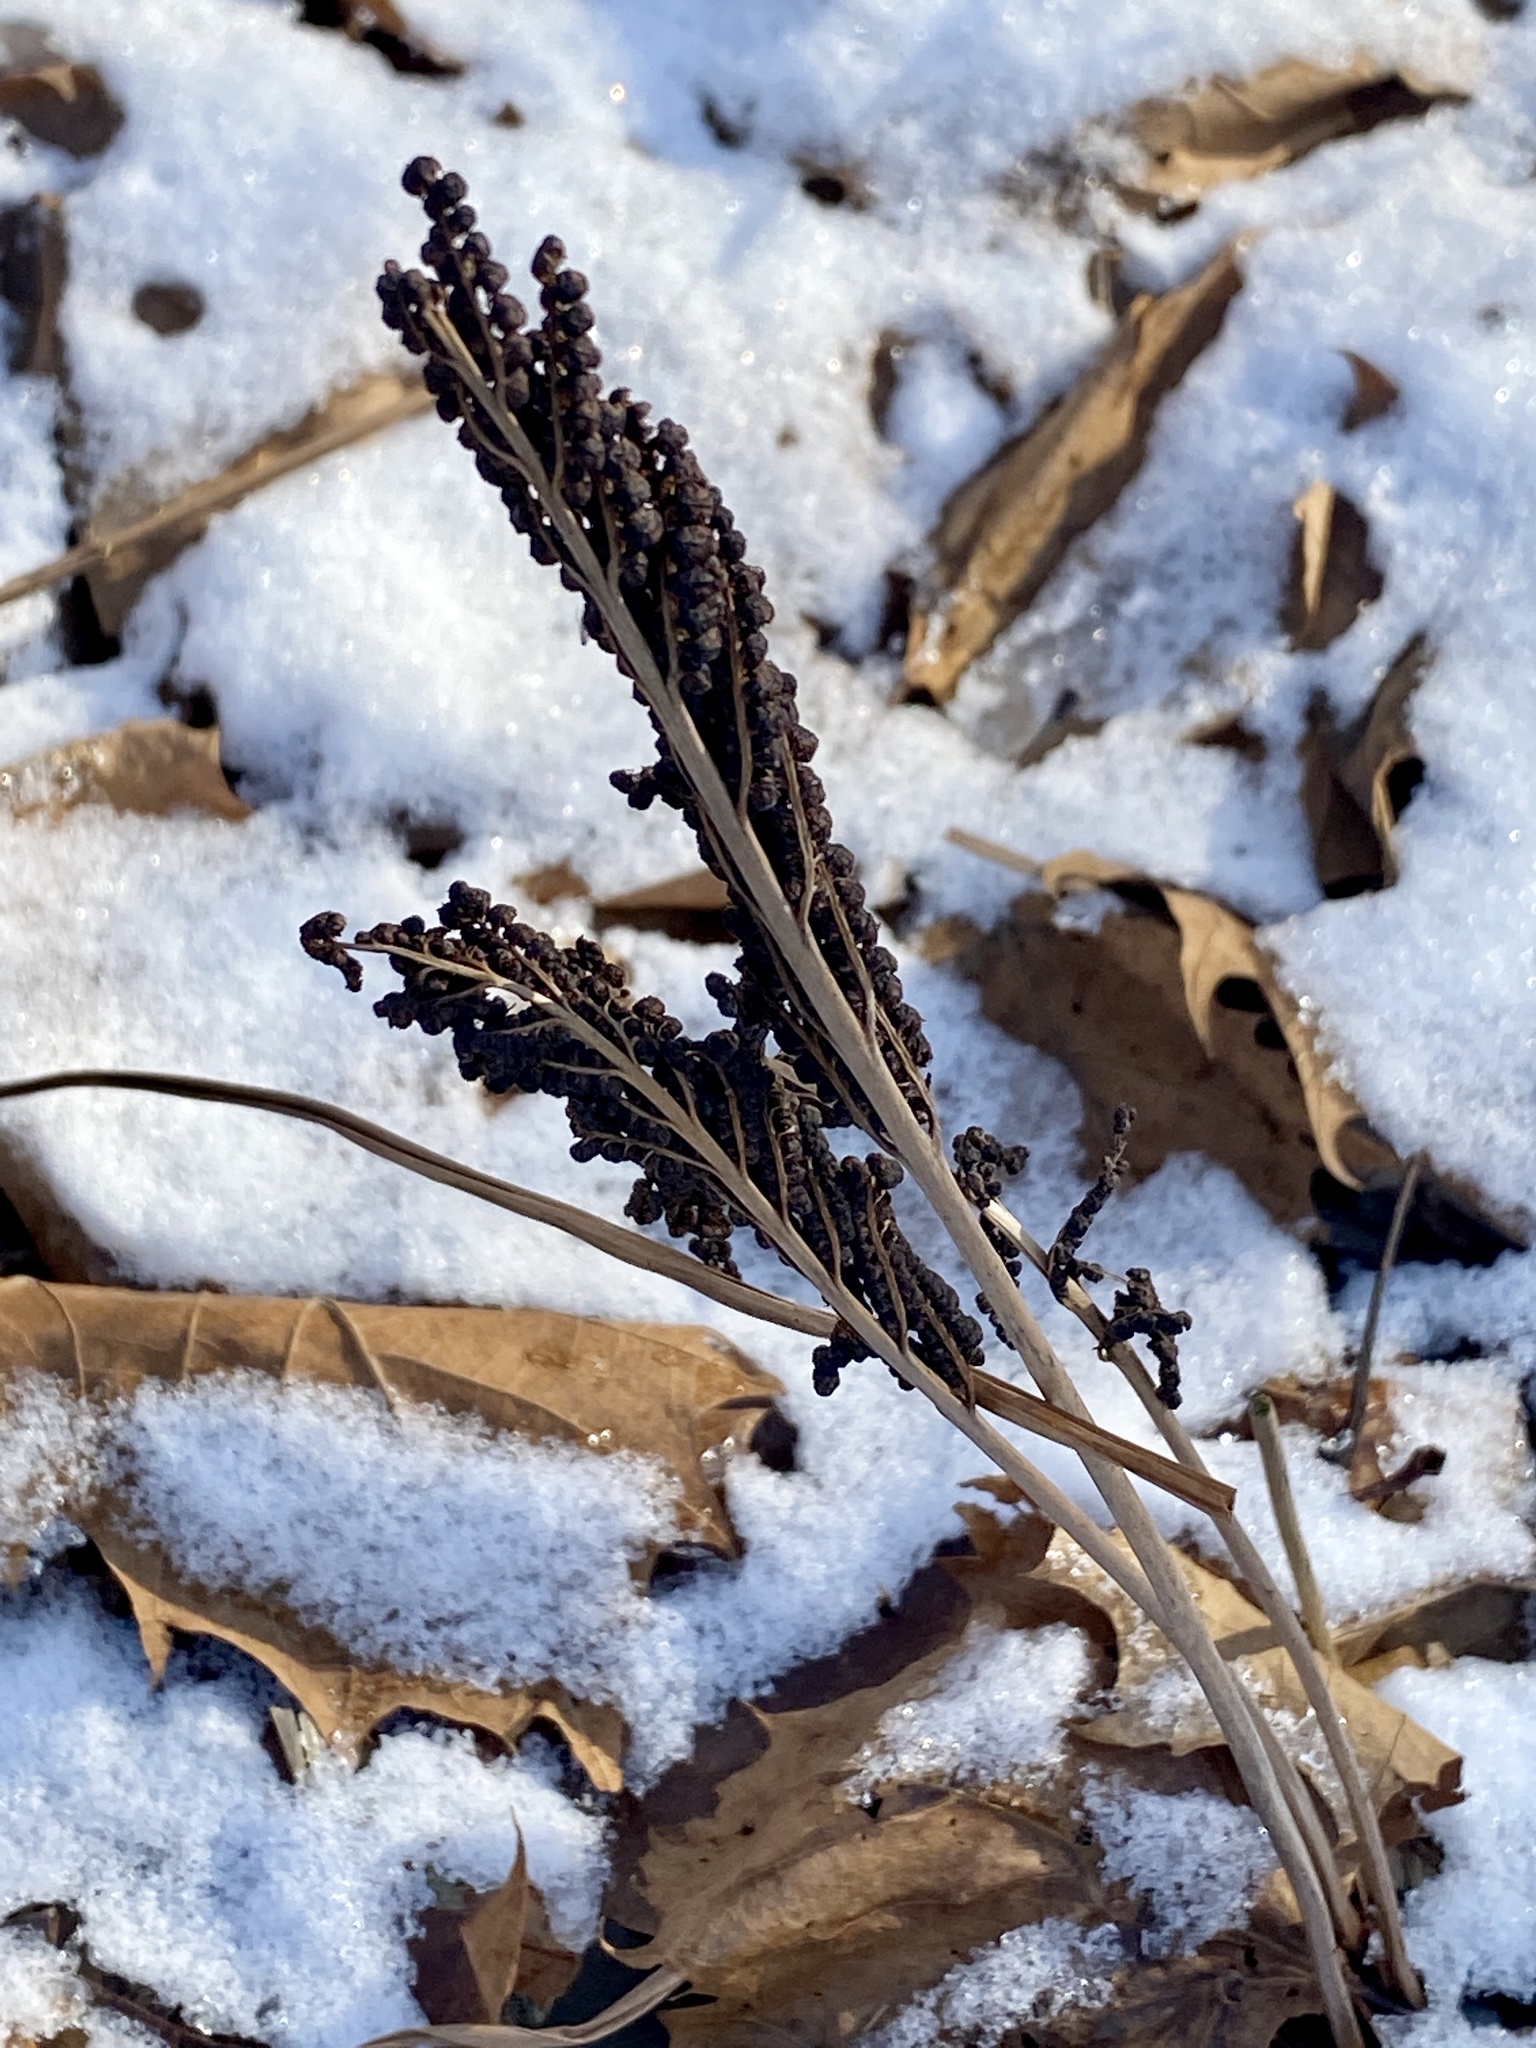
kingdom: Plantae
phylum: Tracheophyta
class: Polypodiopsida
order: Polypodiales
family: Onocleaceae
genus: Onoclea
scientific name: Onoclea sensibilis
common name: Sensitive fern
